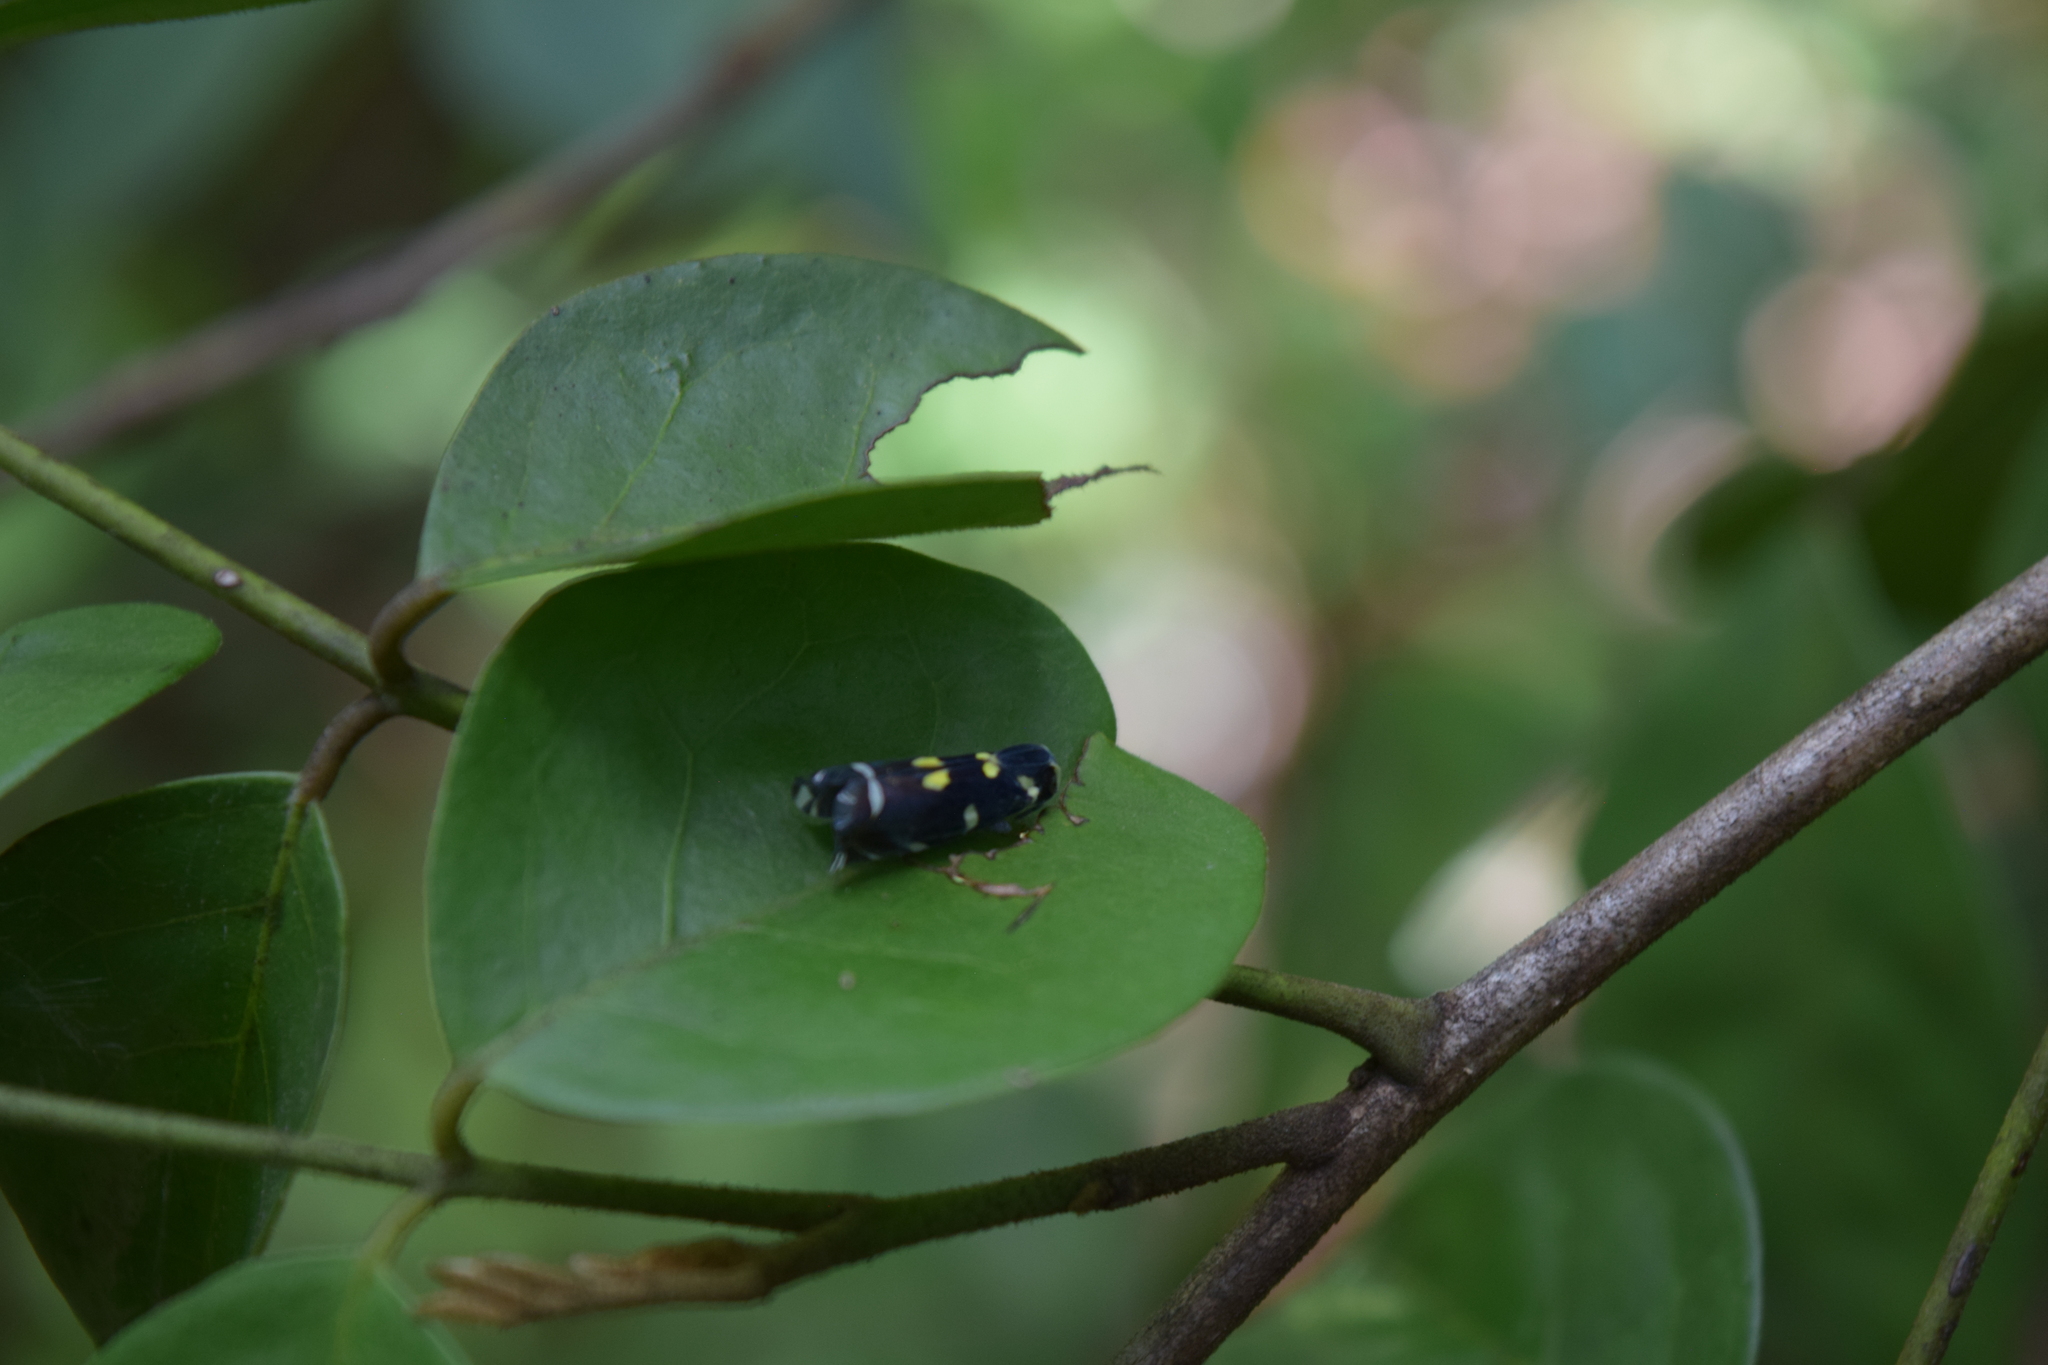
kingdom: Animalia
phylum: Arthropoda
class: Insecta
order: Hemiptera
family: Achilidae
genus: Apateson
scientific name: Apateson albomaculatum
